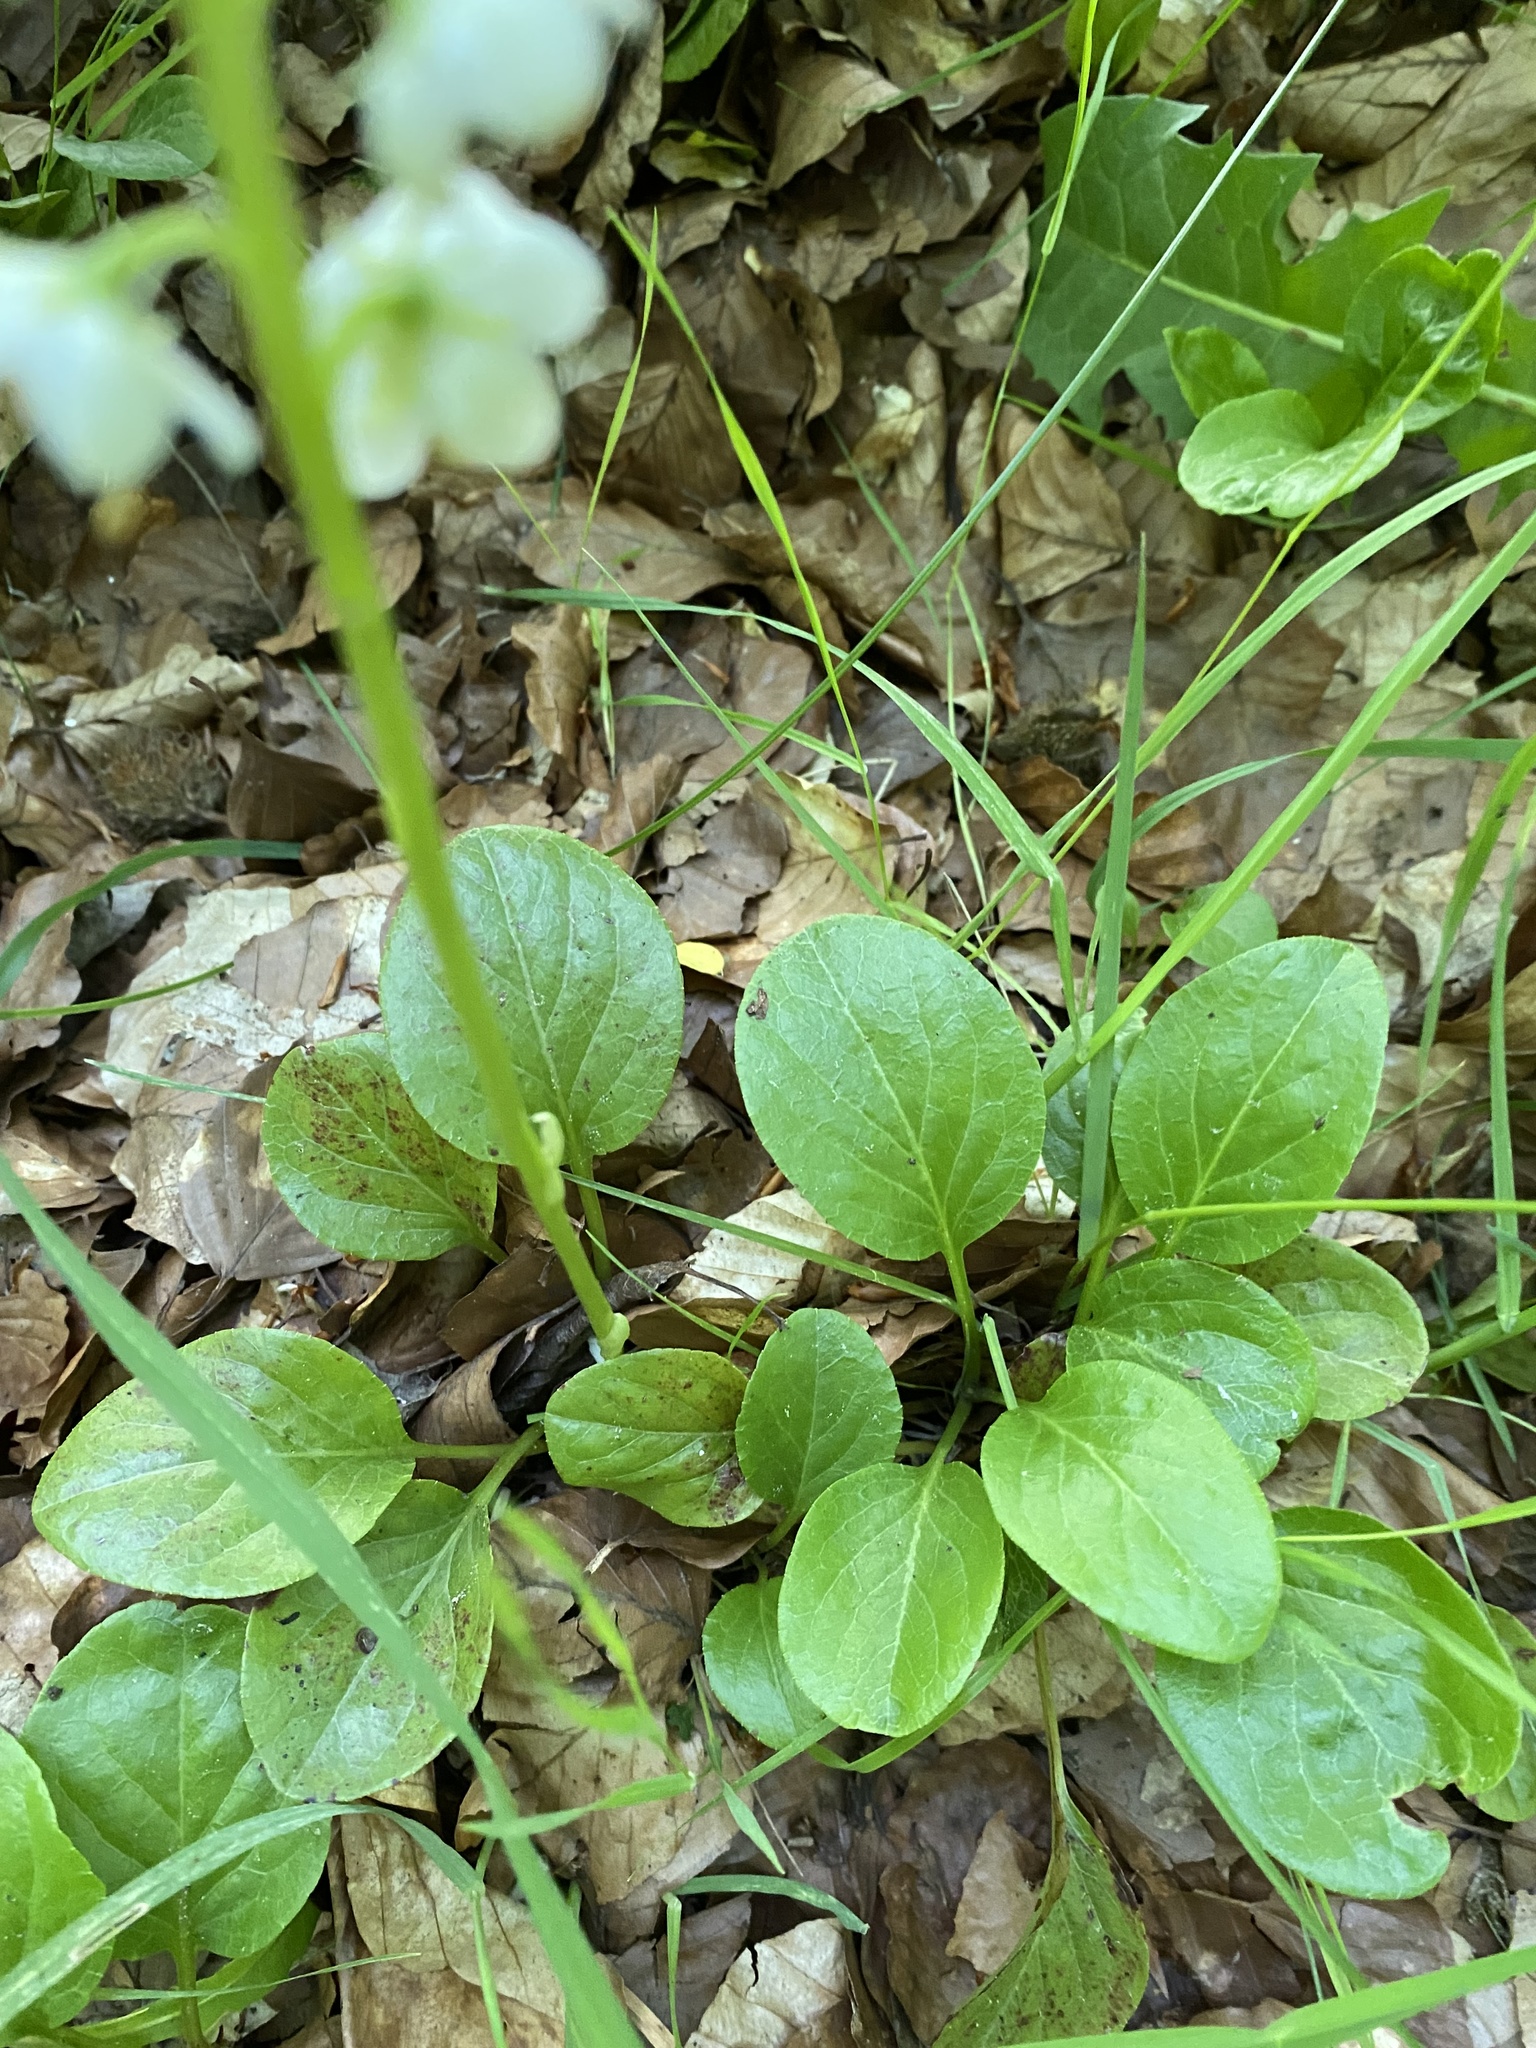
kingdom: Plantae
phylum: Tracheophyta
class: Magnoliopsida
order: Ericales
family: Ericaceae
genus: Pyrola
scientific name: Pyrola rotundifolia
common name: Round-leaved wintergreen
